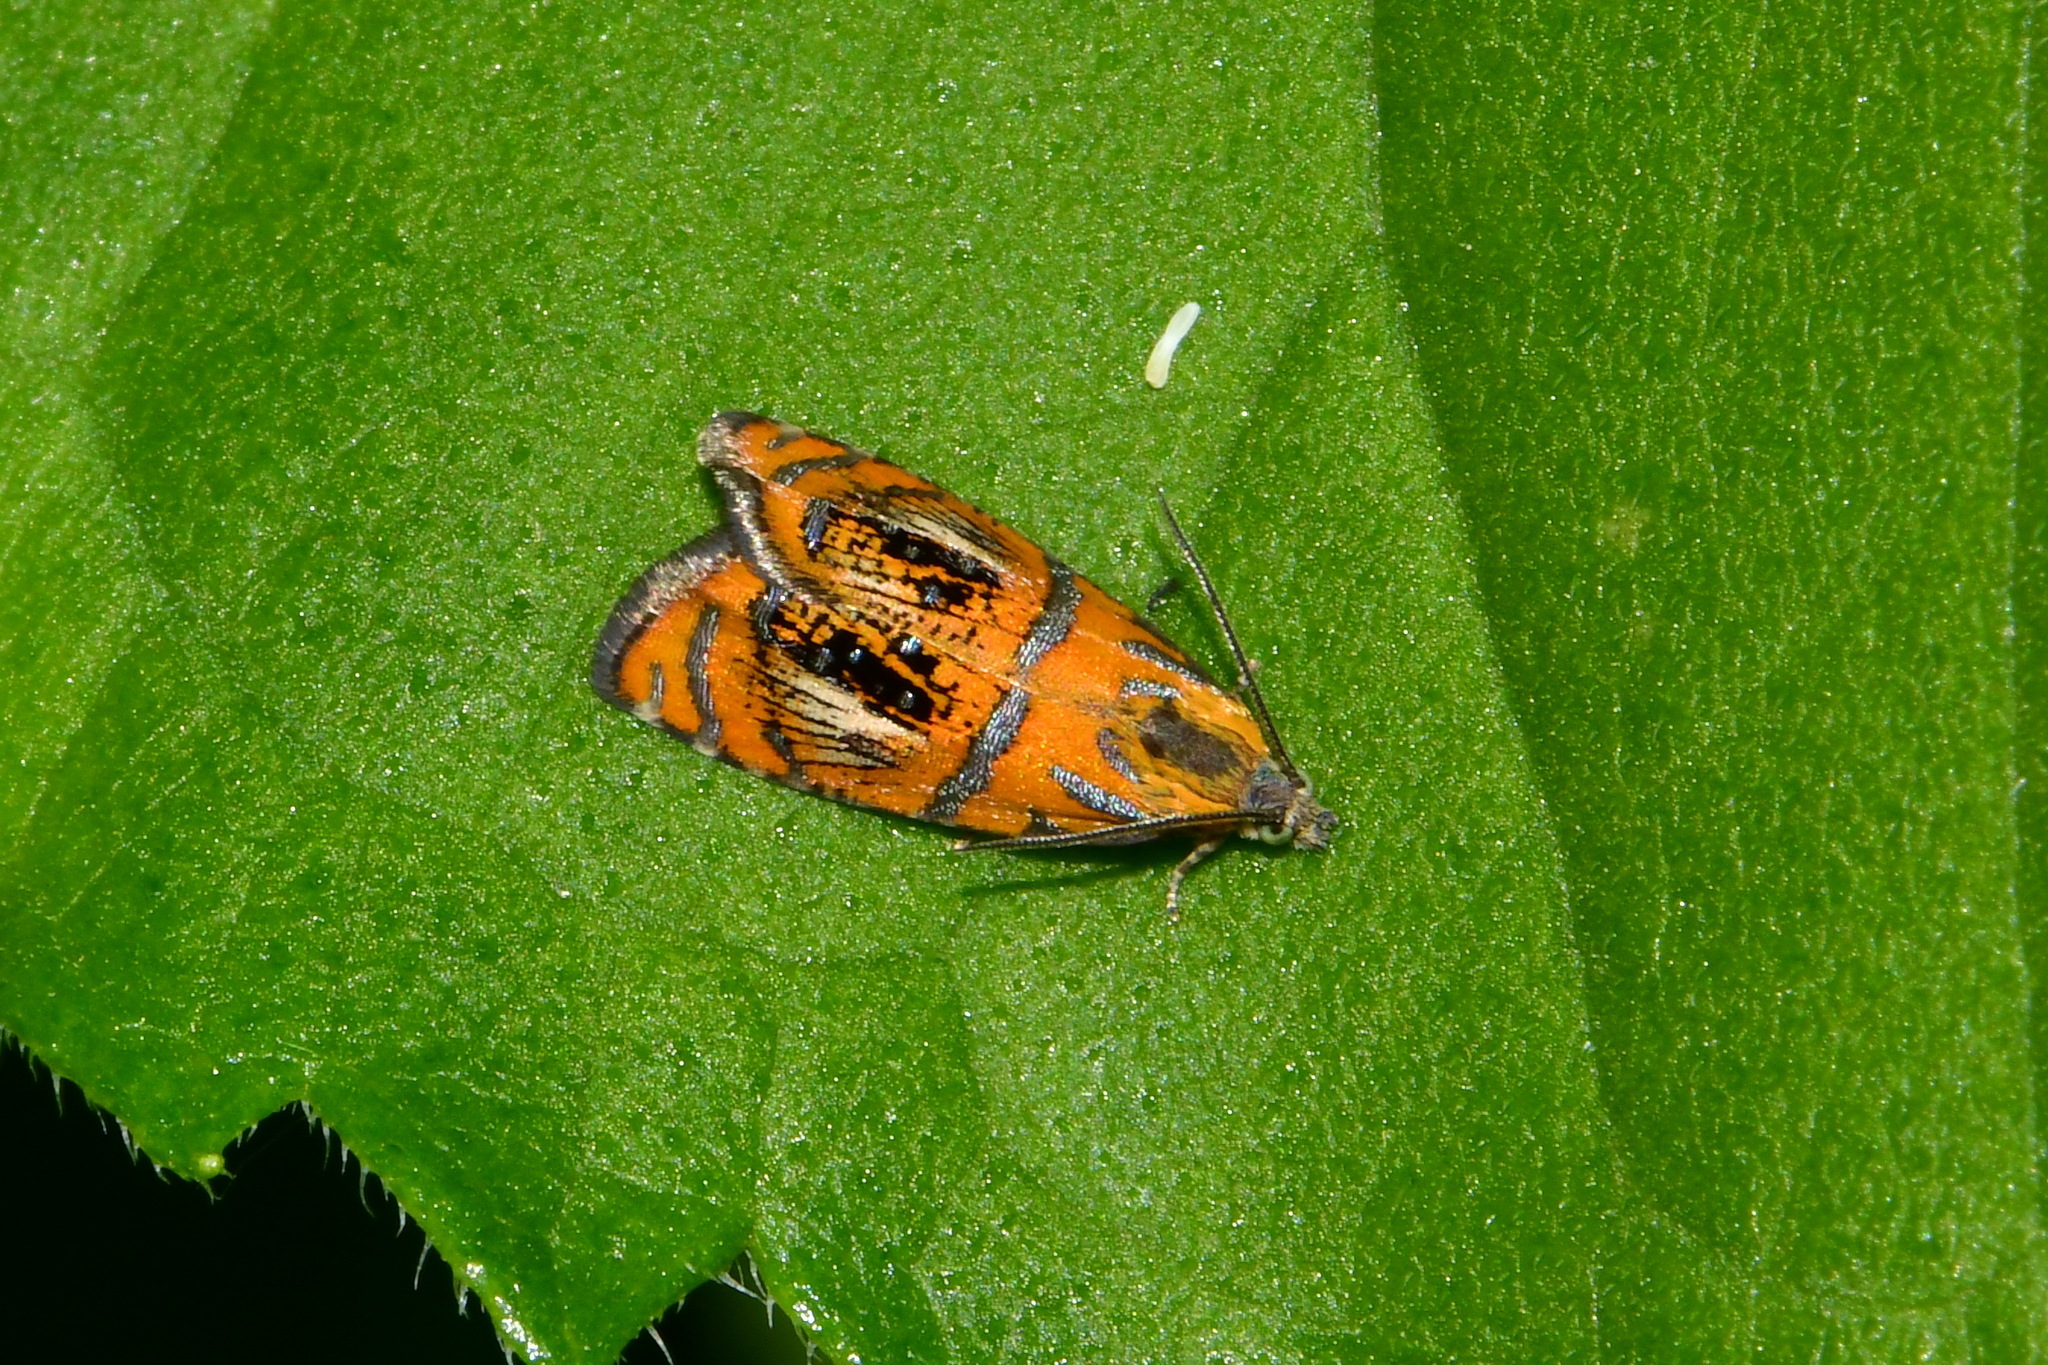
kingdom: Animalia
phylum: Arthropoda
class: Insecta
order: Lepidoptera
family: Tortricidae
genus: Olethreutes
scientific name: Olethreutes arcuella
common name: Arched marble
